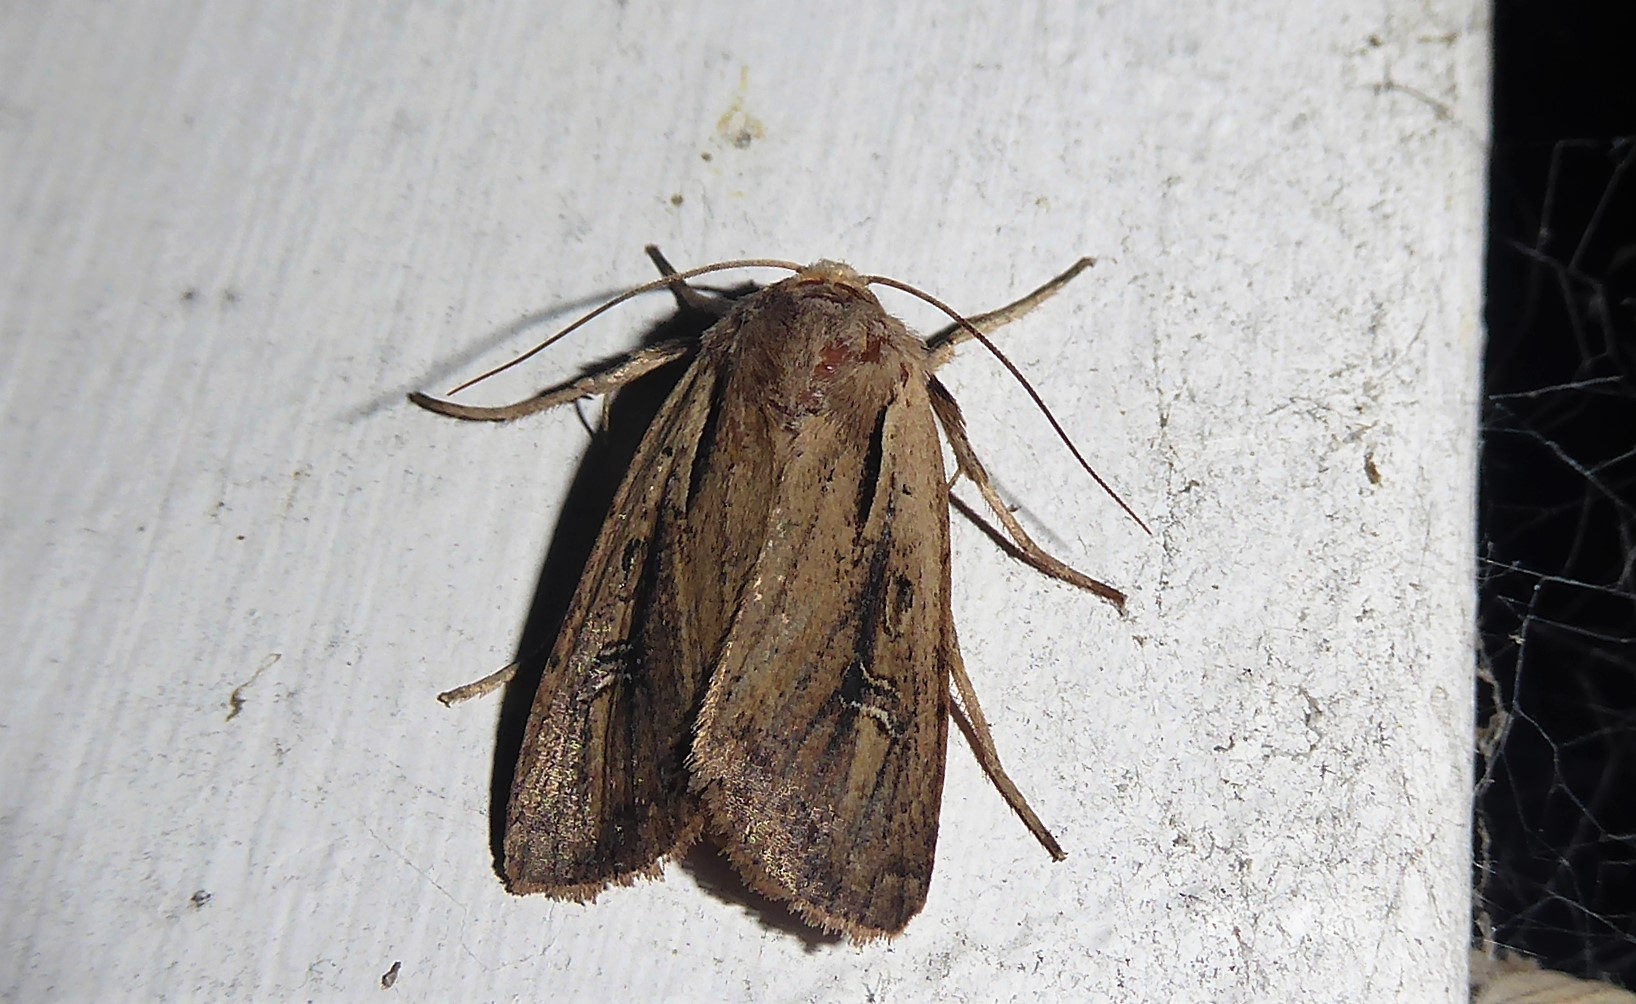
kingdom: Animalia
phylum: Arthropoda
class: Insecta
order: Lepidoptera
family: Noctuidae
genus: Ichneutica
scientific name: Ichneutica atristriga
